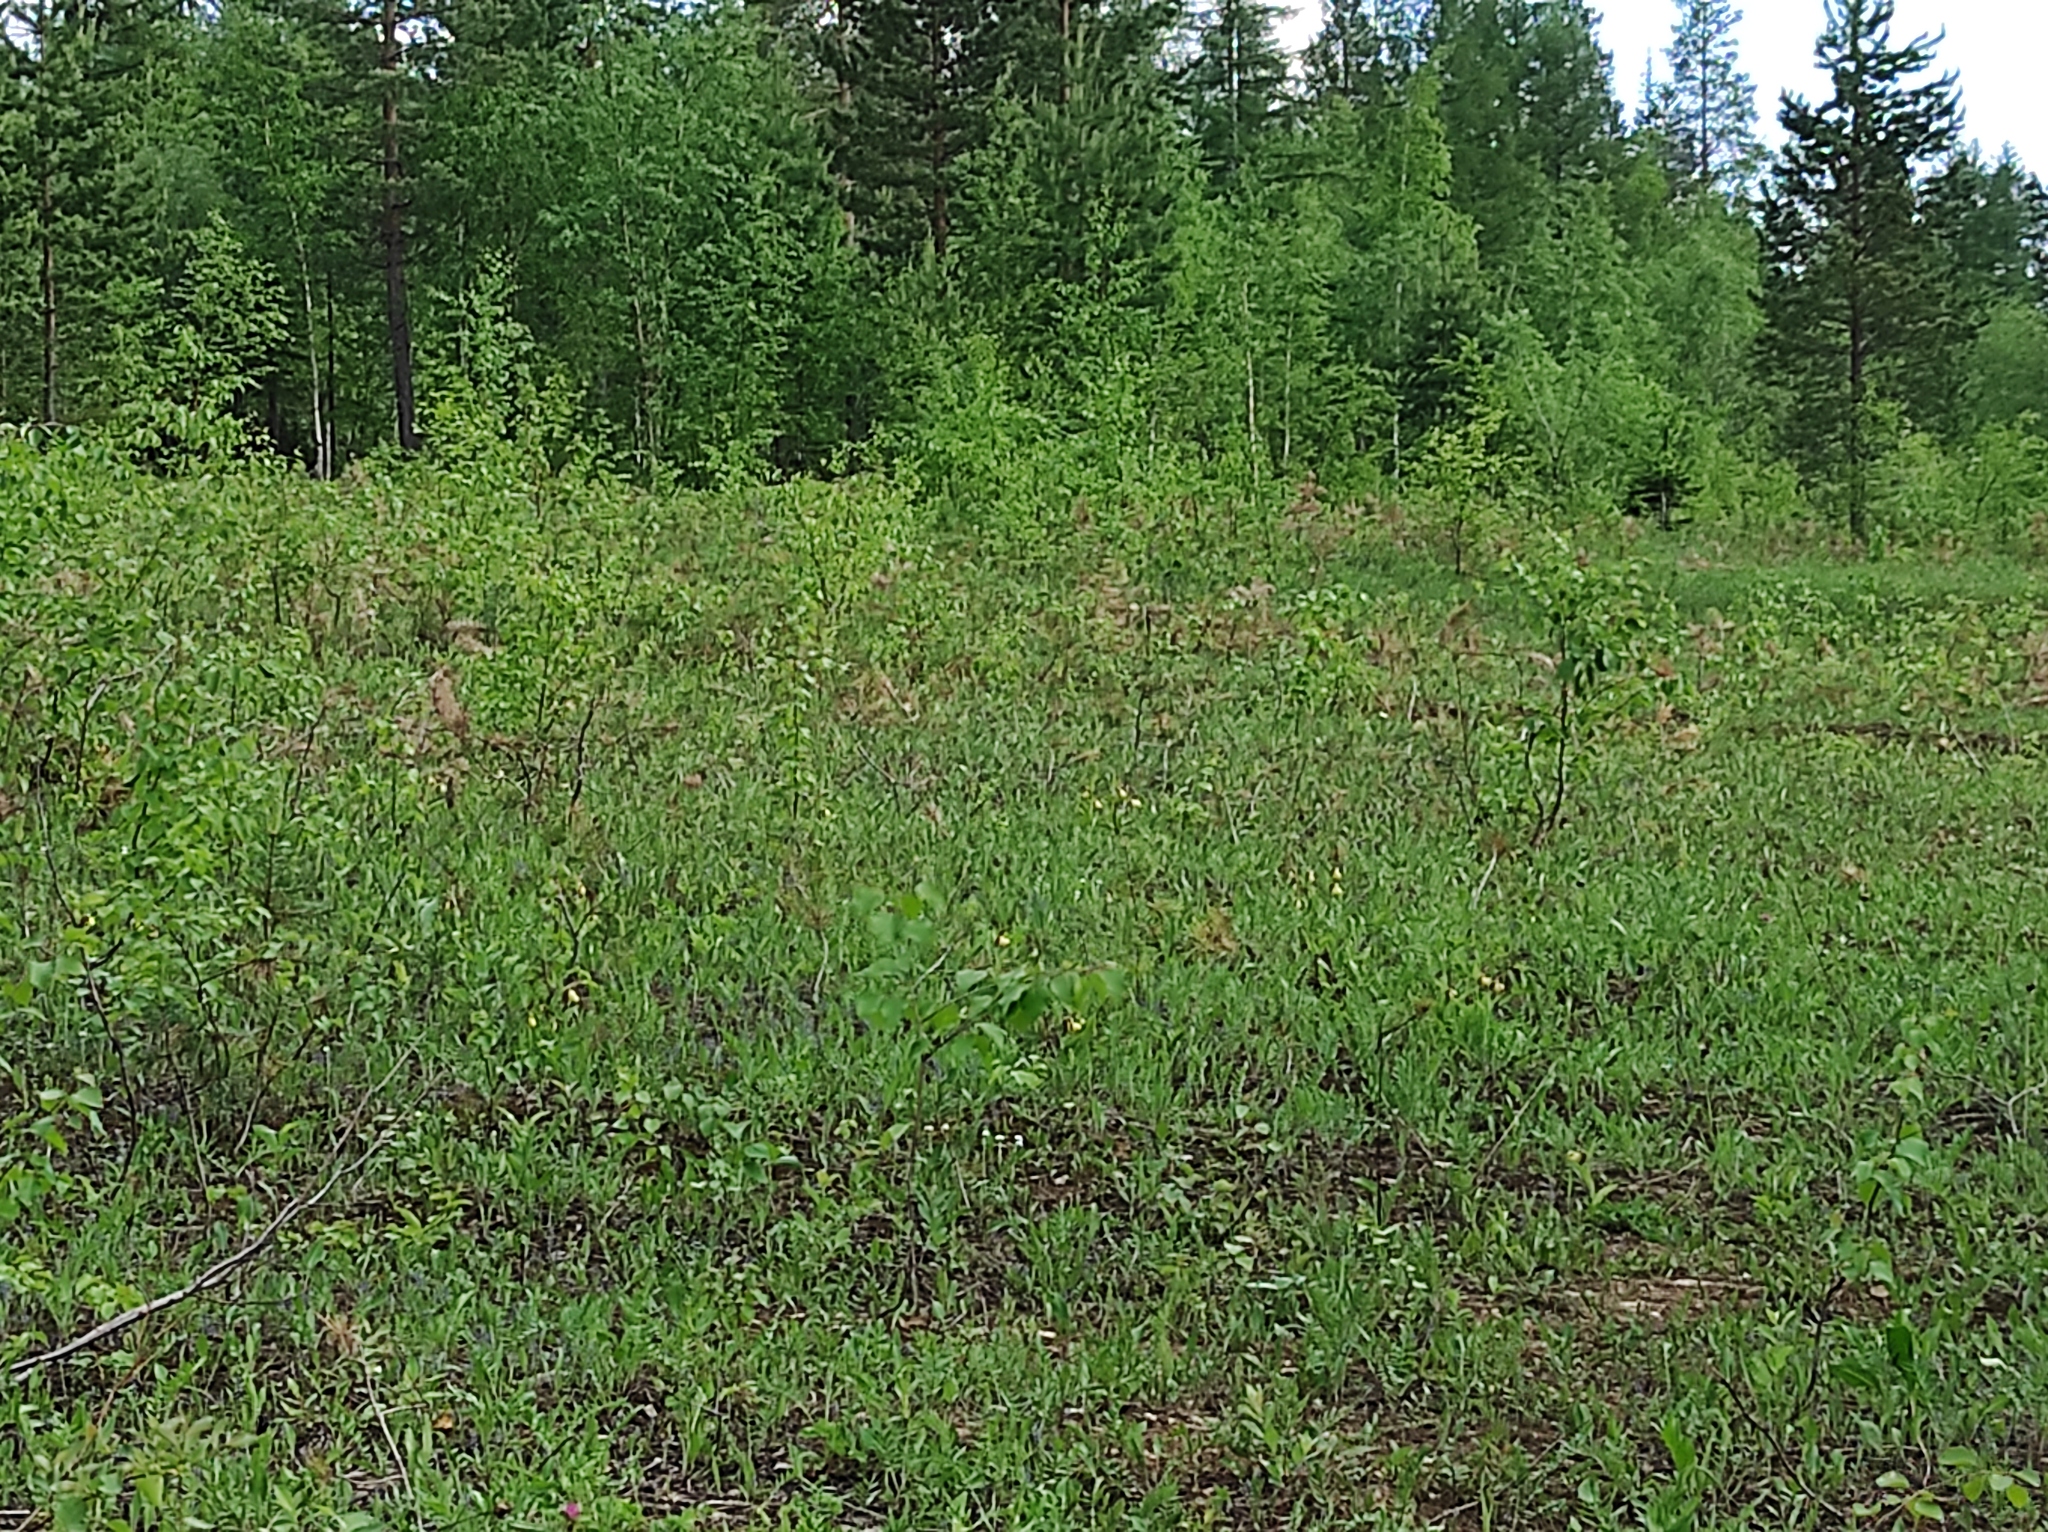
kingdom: Plantae
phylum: Tracheophyta
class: Pinopsida
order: Pinales
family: Pinaceae
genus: Larix
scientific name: Larix gmelinii
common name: Dahurian larch
